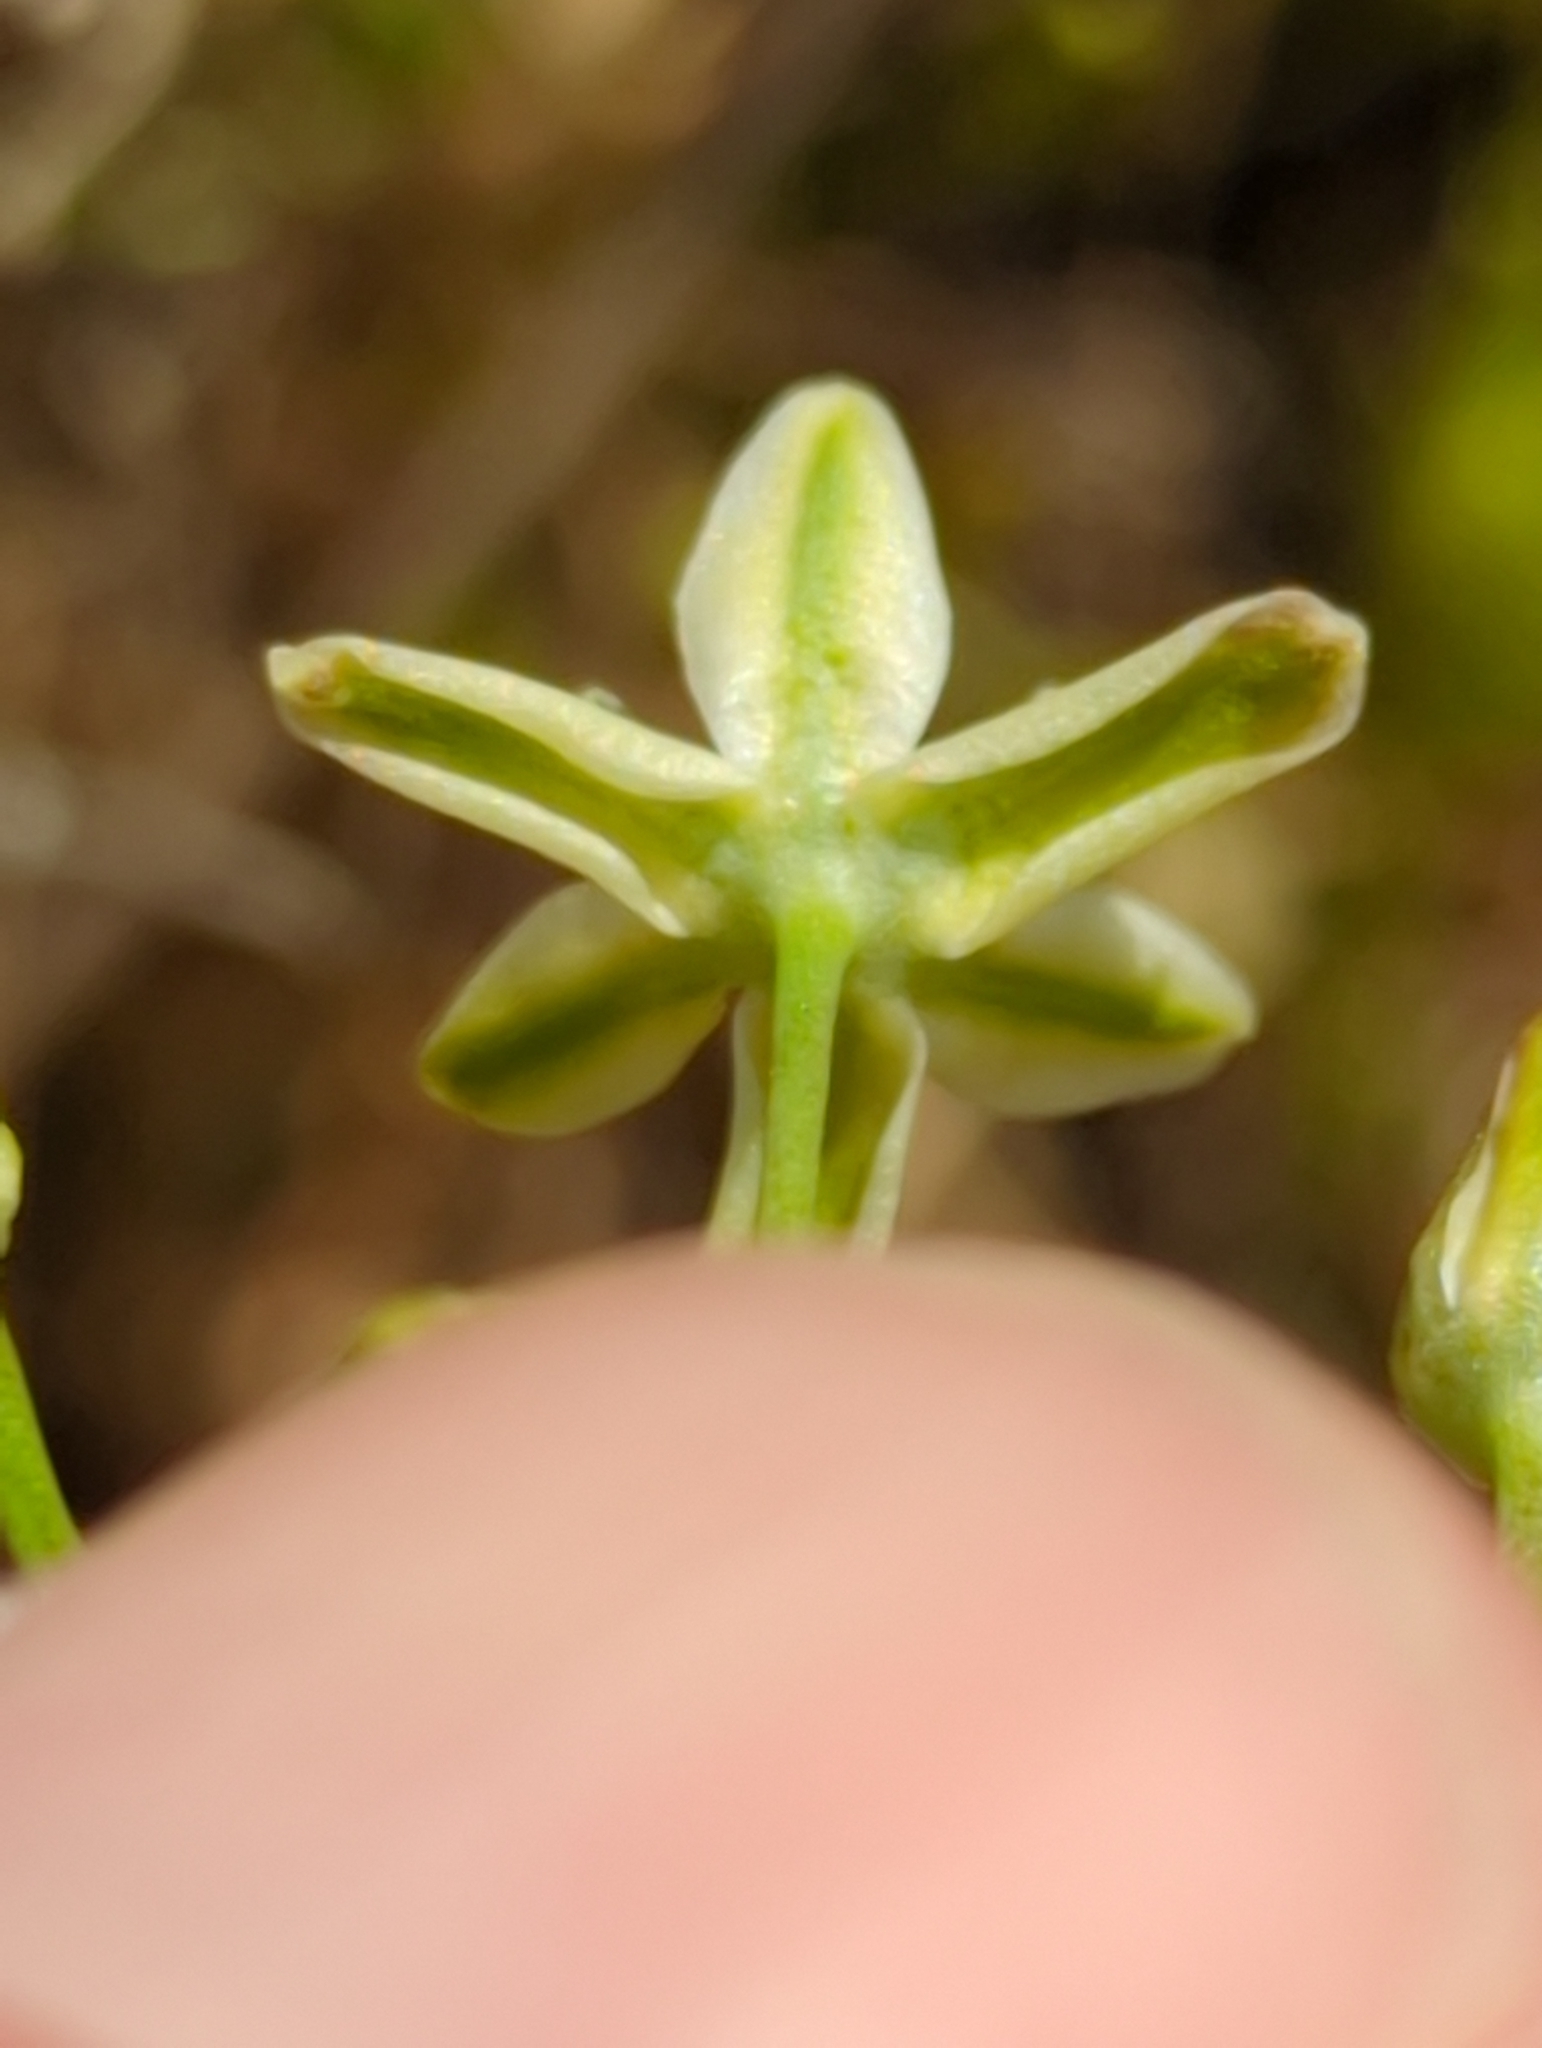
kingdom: Plantae
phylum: Tracheophyta
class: Liliopsida
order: Asparagales
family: Asparagaceae
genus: Muilla
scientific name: Muilla maritima
